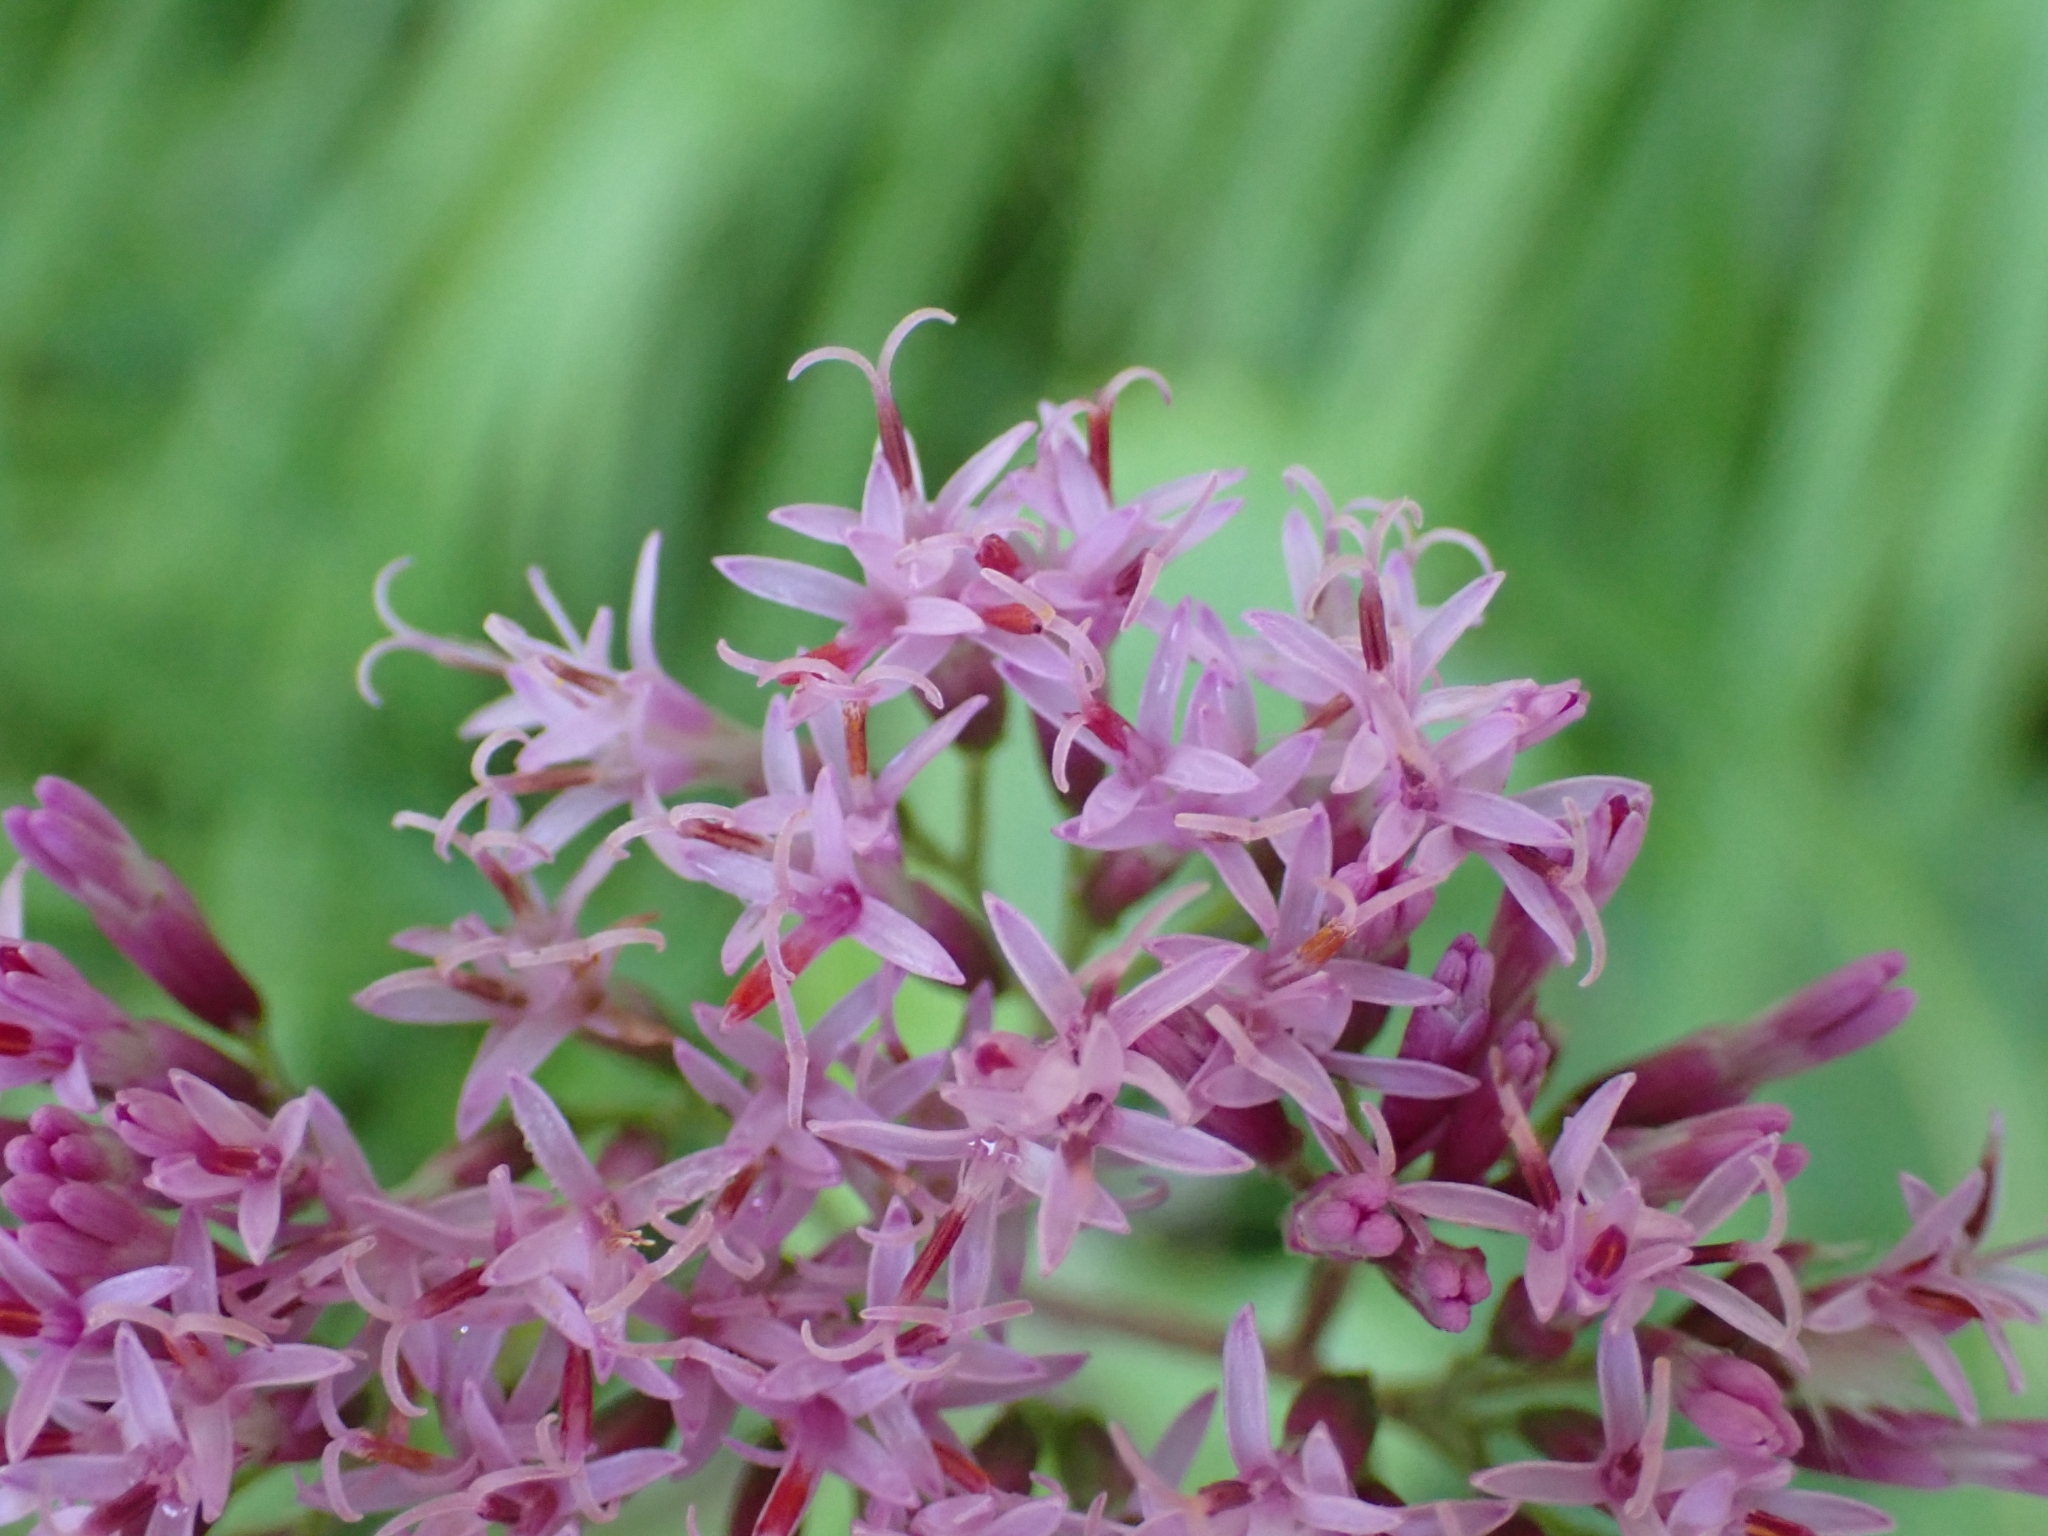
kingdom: Plantae
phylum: Tracheophyta
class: Magnoliopsida
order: Asterales
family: Asteraceae
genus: Adenostyles
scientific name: Adenostyles alpina
